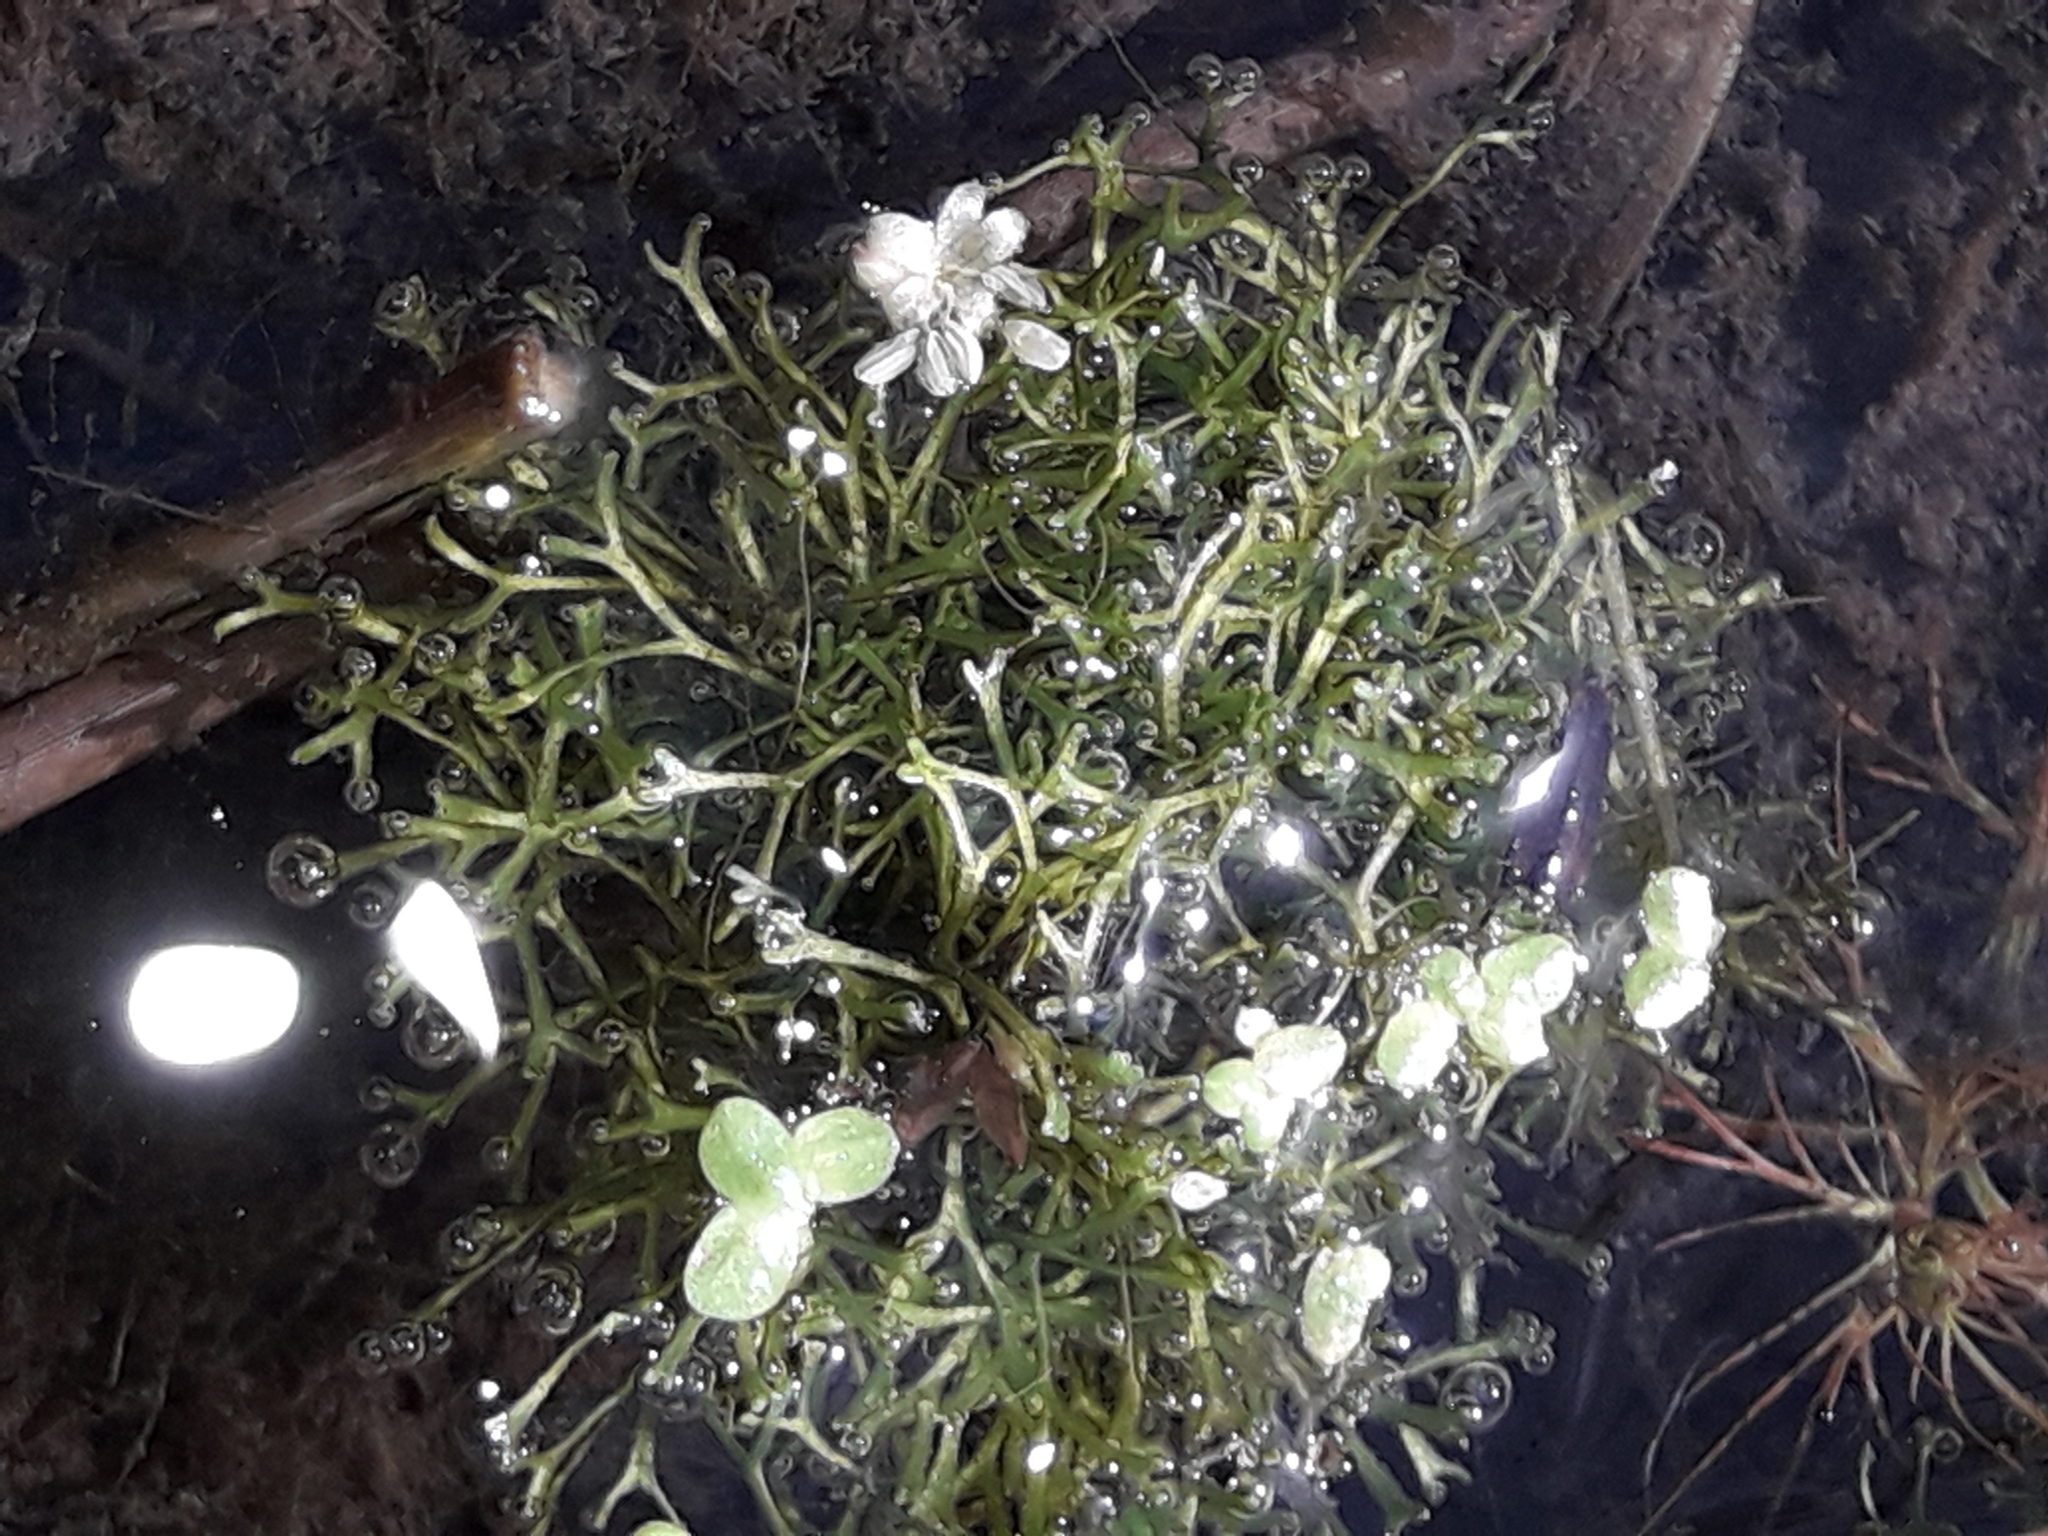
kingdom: Plantae
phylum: Marchantiophyta
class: Marchantiopsida
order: Marchantiales
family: Ricciaceae
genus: Riccia
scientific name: Riccia fluitans
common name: Floating crystalwort
